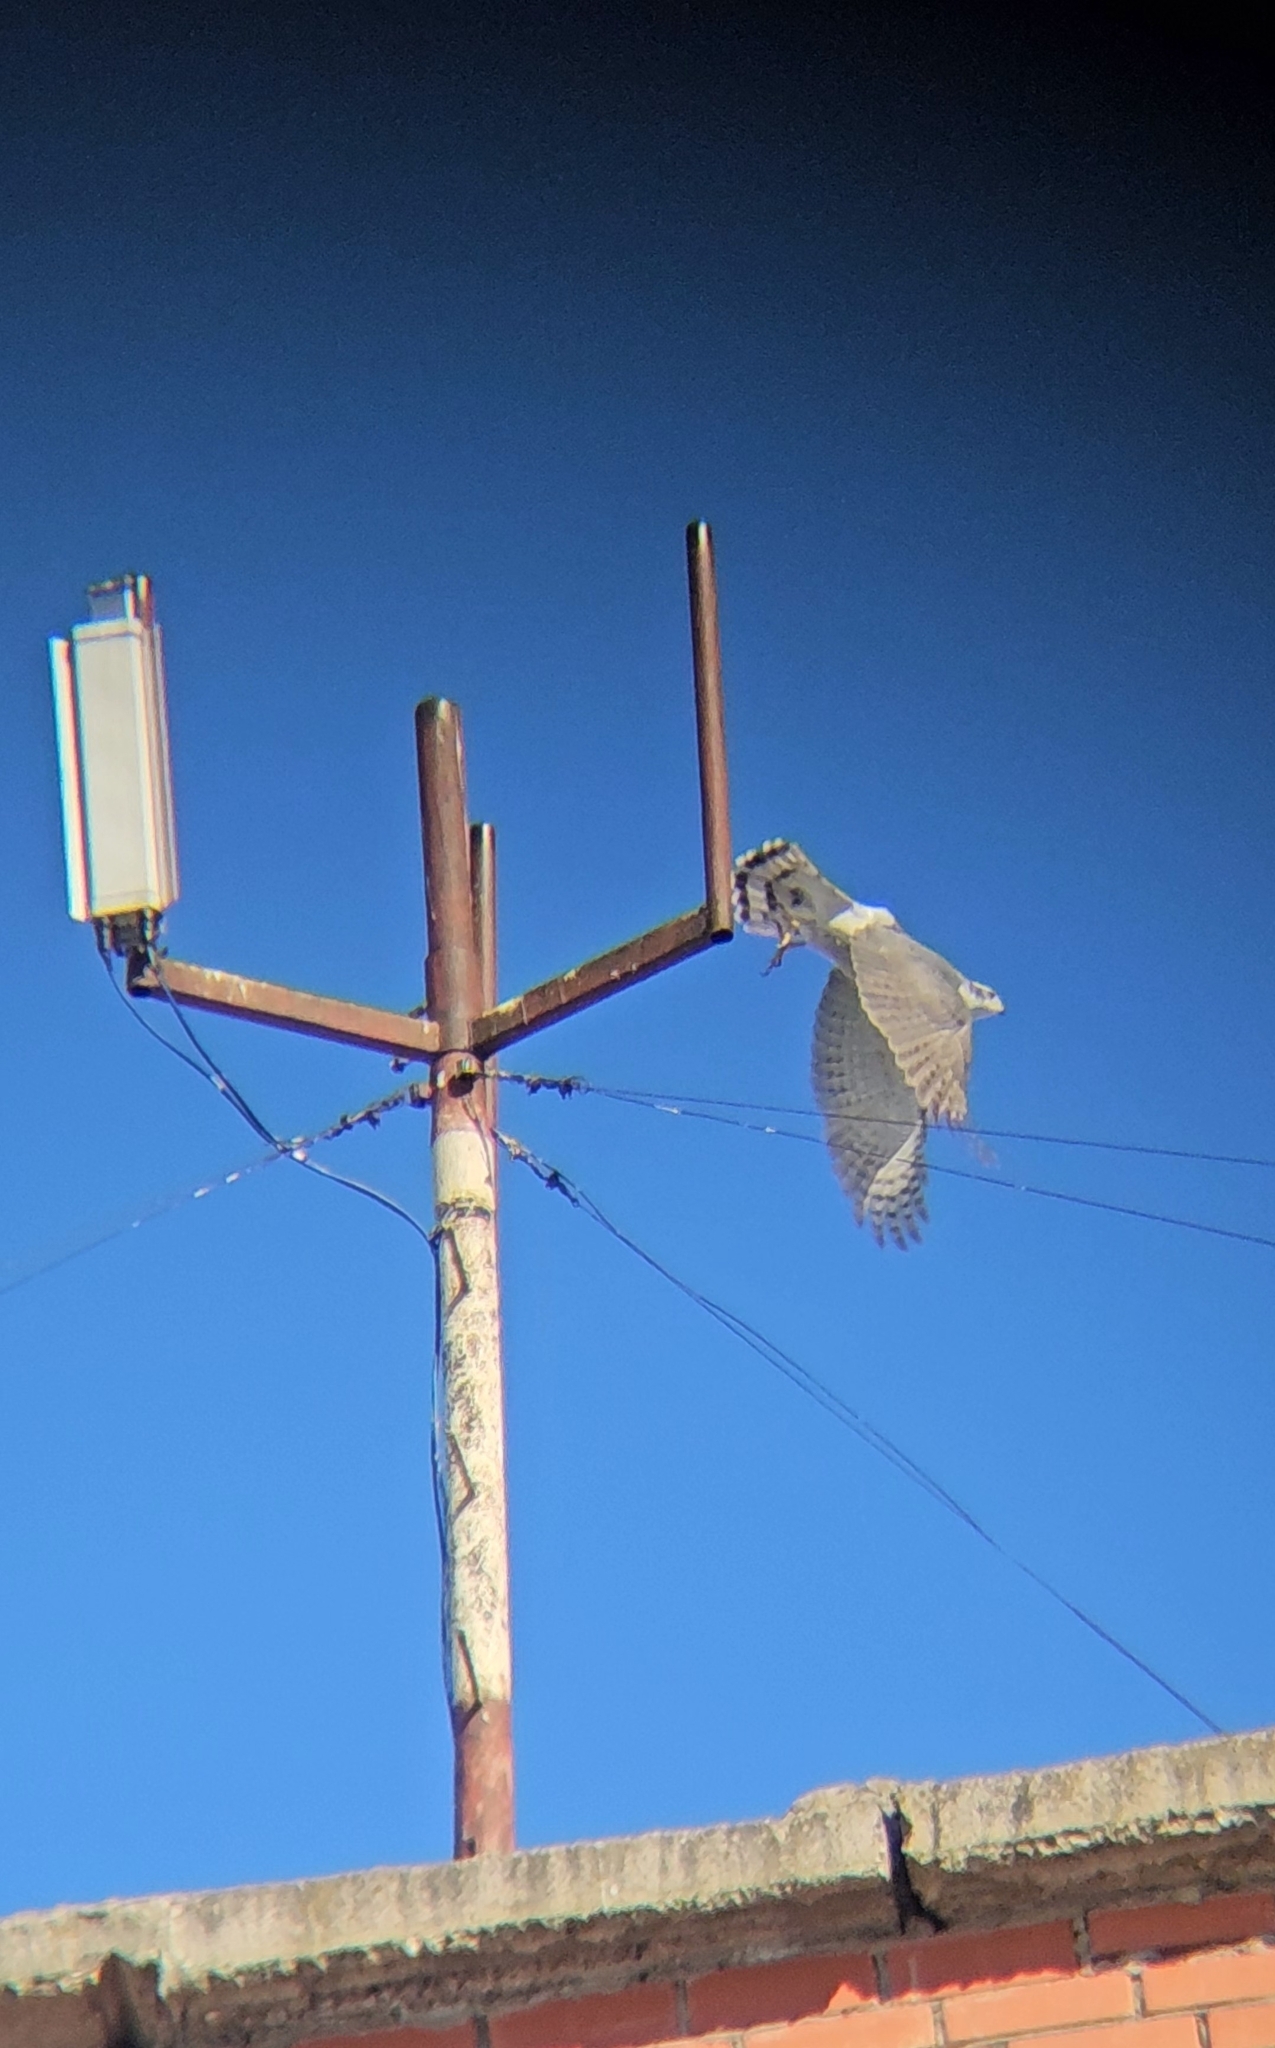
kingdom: Animalia
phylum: Chordata
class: Aves
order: Accipitriformes
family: Accipitridae
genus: Accipiter
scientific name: Accipiter gentilis
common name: Northern goshawk
